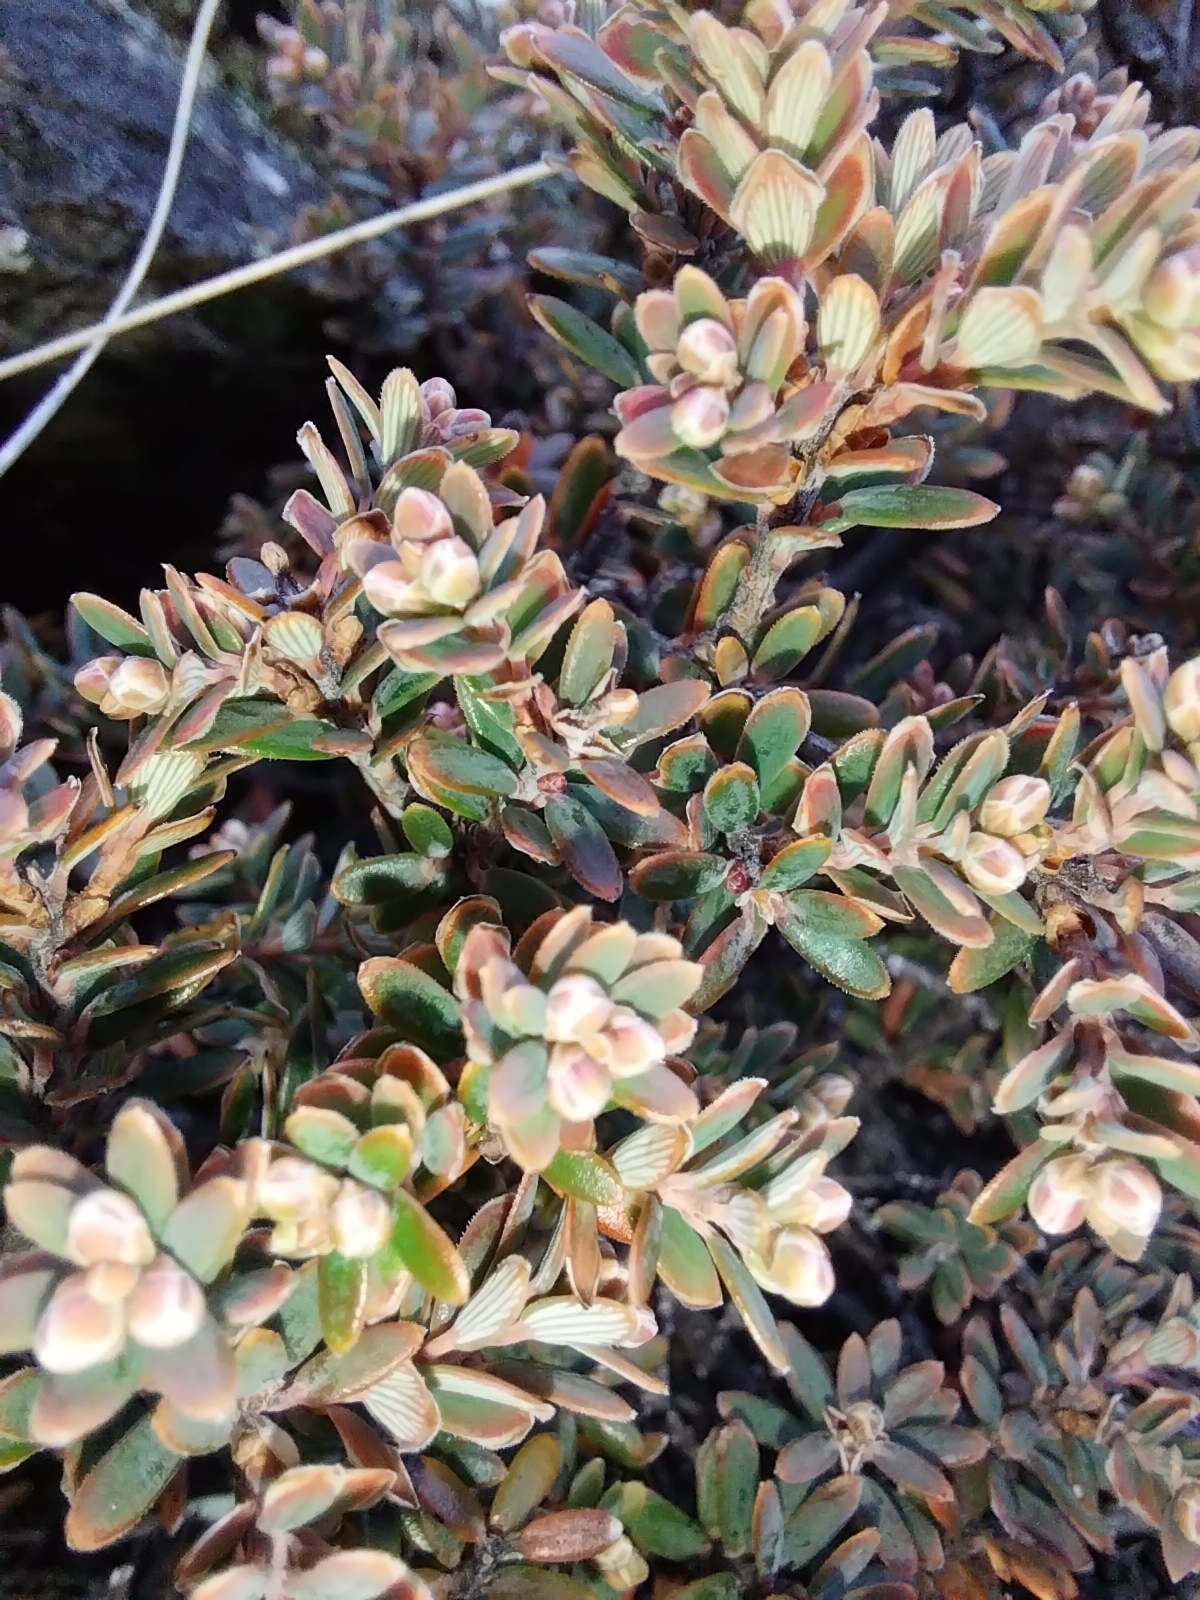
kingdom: Plantae
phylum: Tracheophyta
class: Magnoliopsida
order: Ericales
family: Ericaceae
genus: Acrothamnus
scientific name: Acrothamnus colensoi
